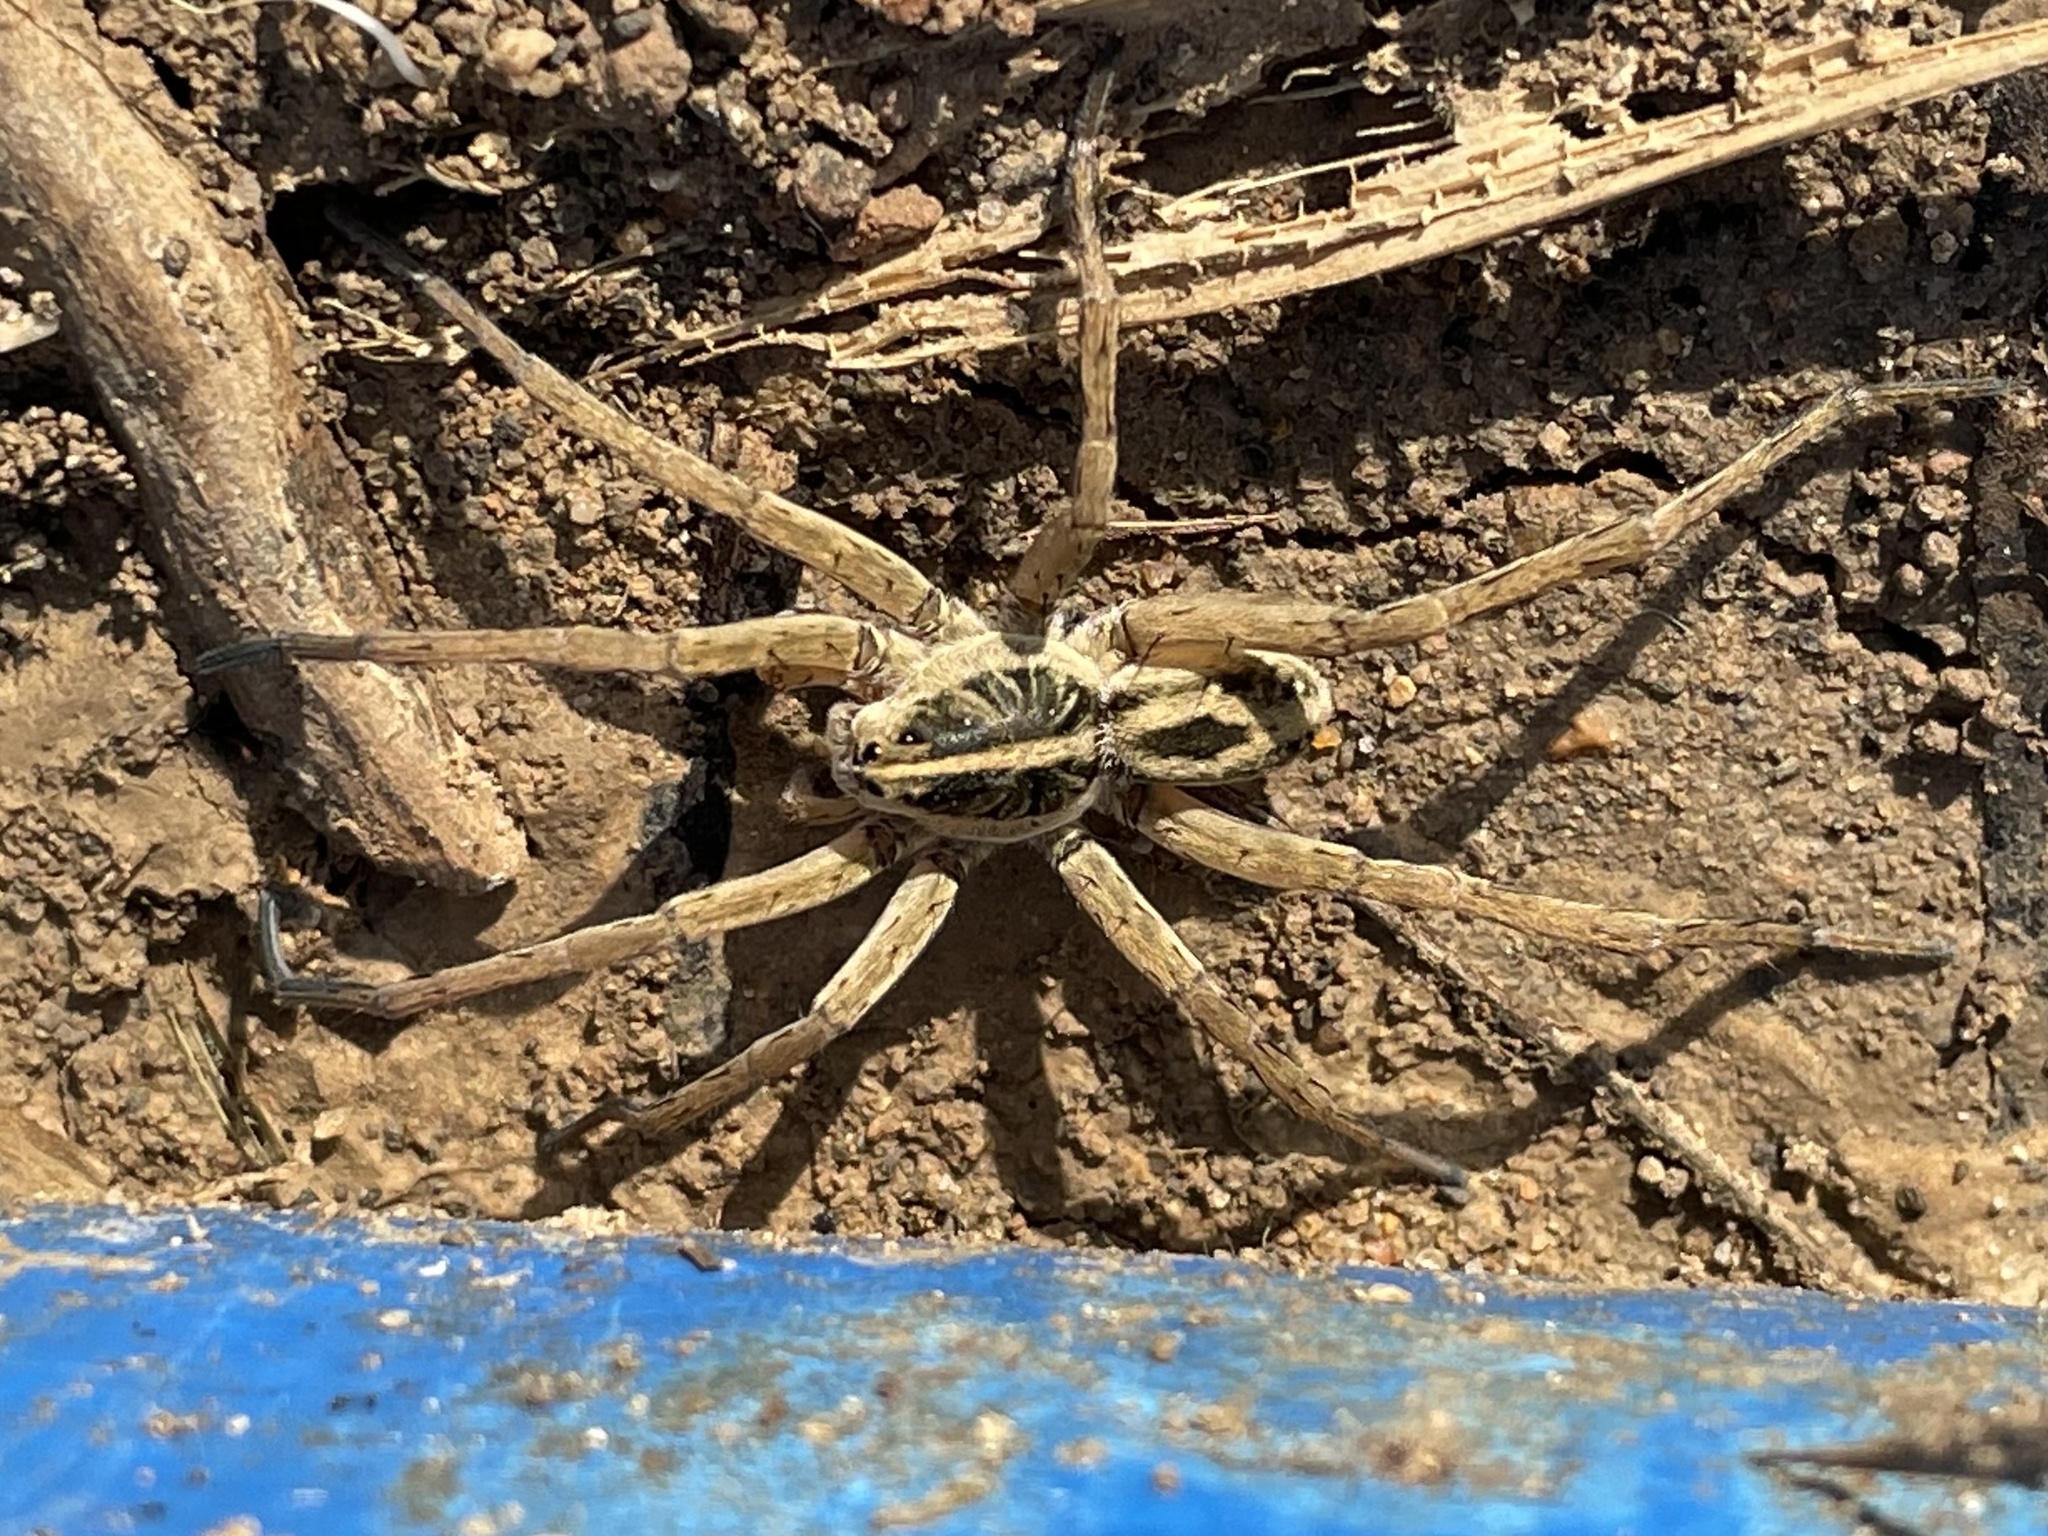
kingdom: Animalia
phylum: Arthropoda
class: Arachnida
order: Araneae
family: Lycosidae
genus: Tigrosa
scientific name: Tigrosa annexa
